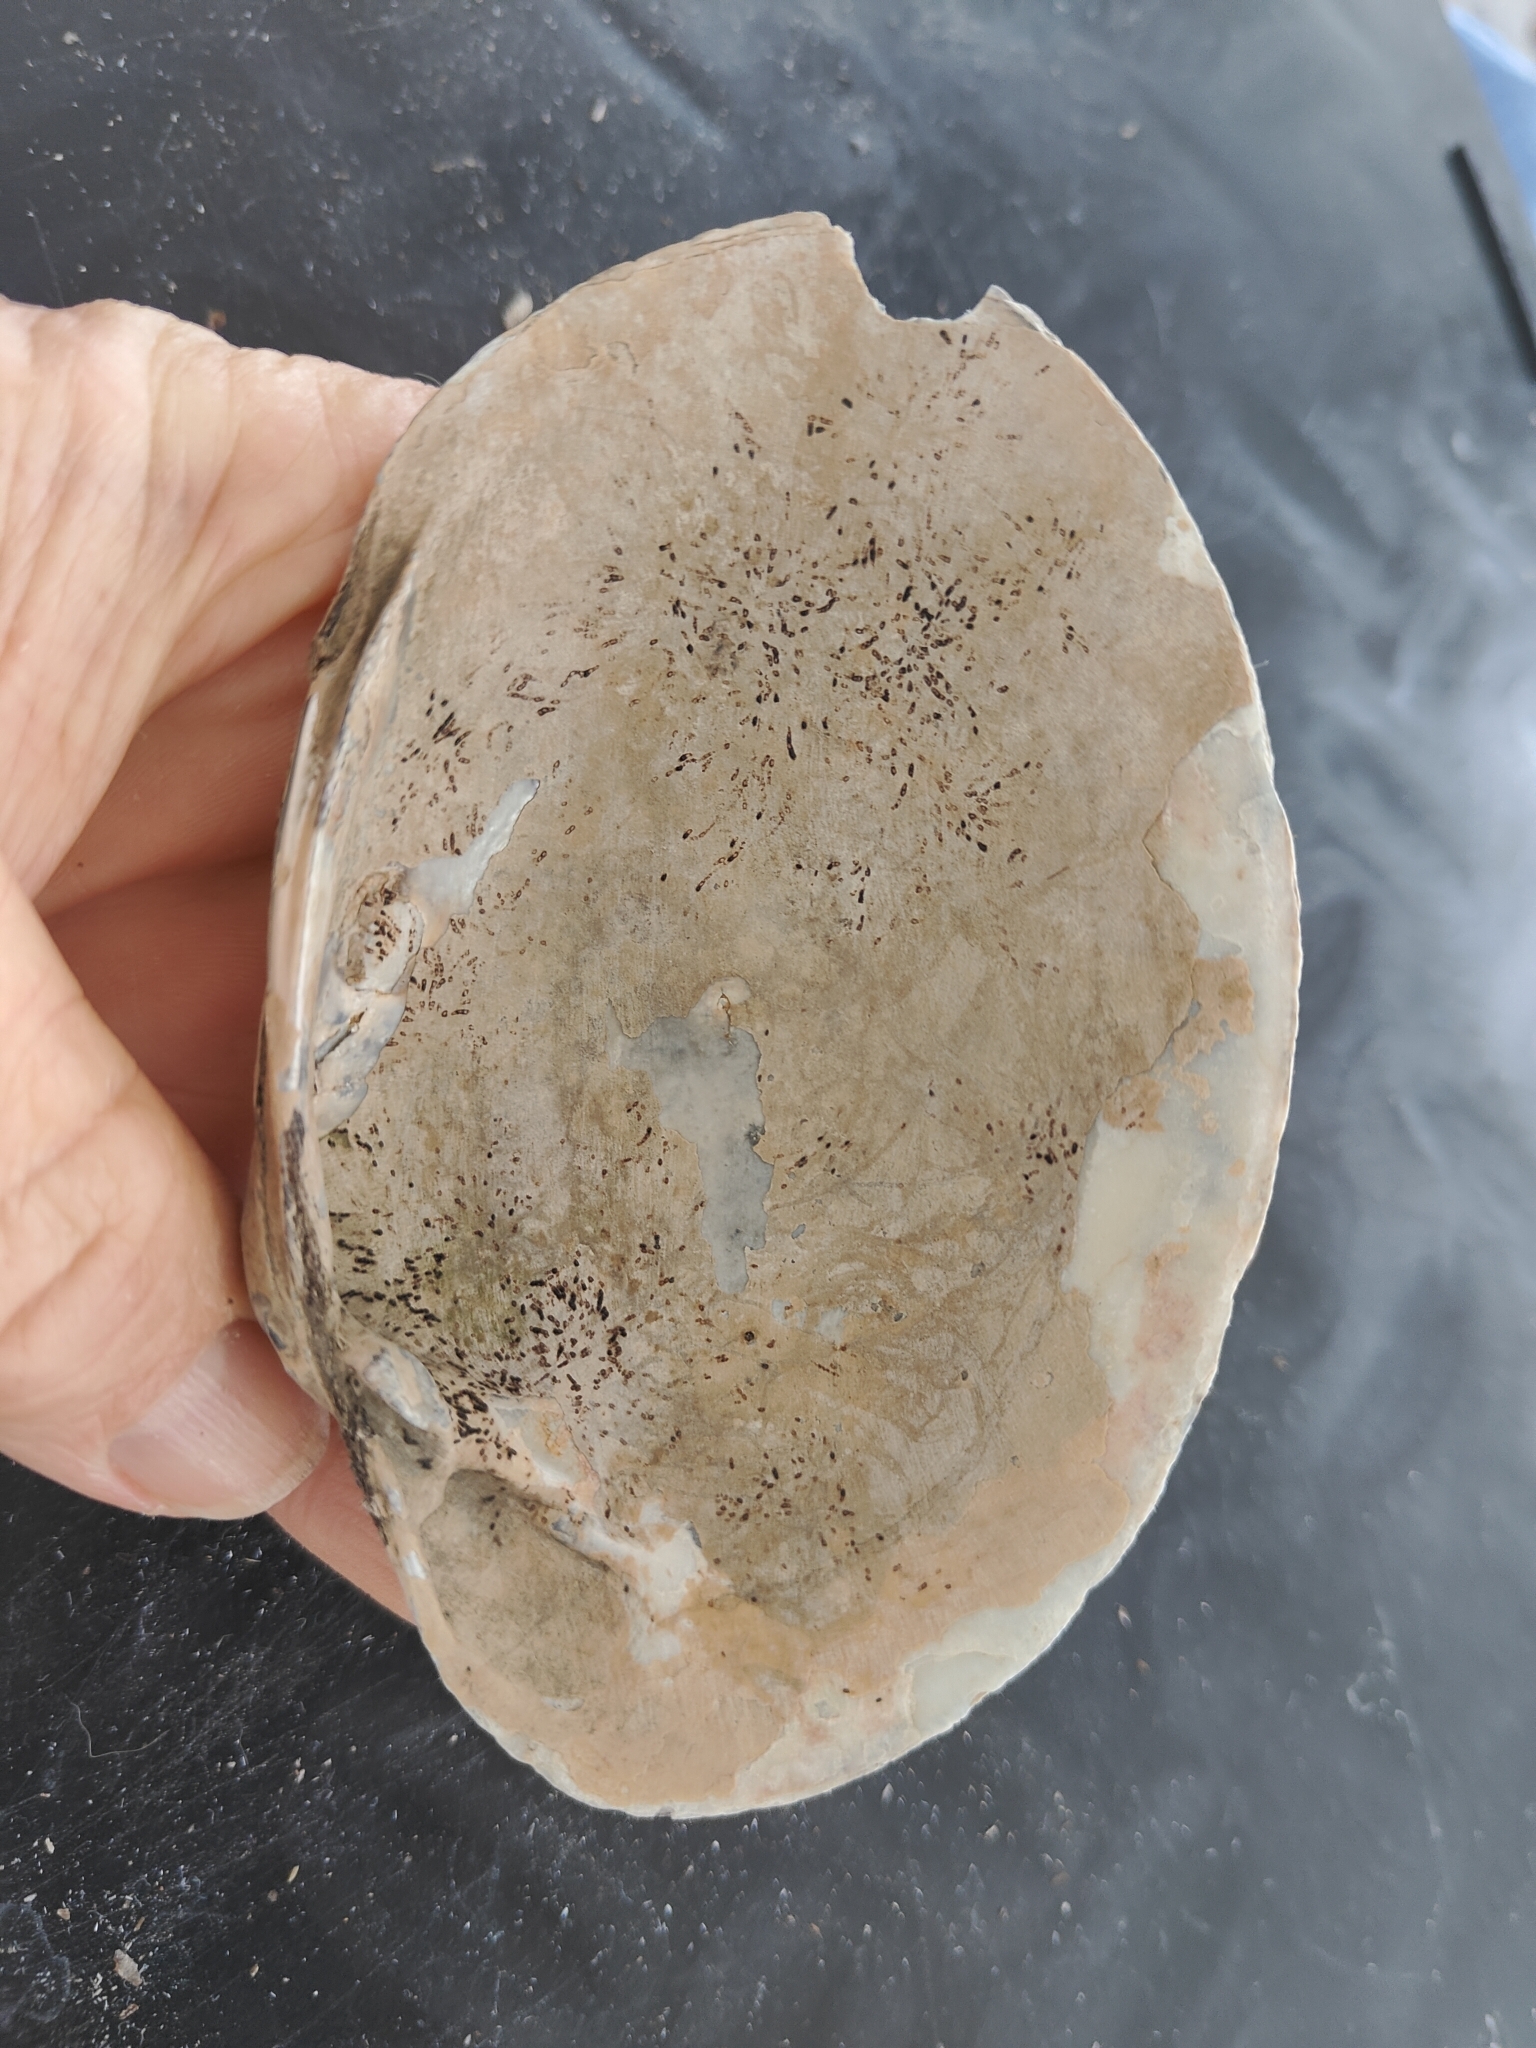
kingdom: Animalia
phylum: Mollusca
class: Bivalvia
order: Unionida
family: Unionidae
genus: Lampsilis
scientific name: Lampsilis cardium
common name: Plain pocketbook
